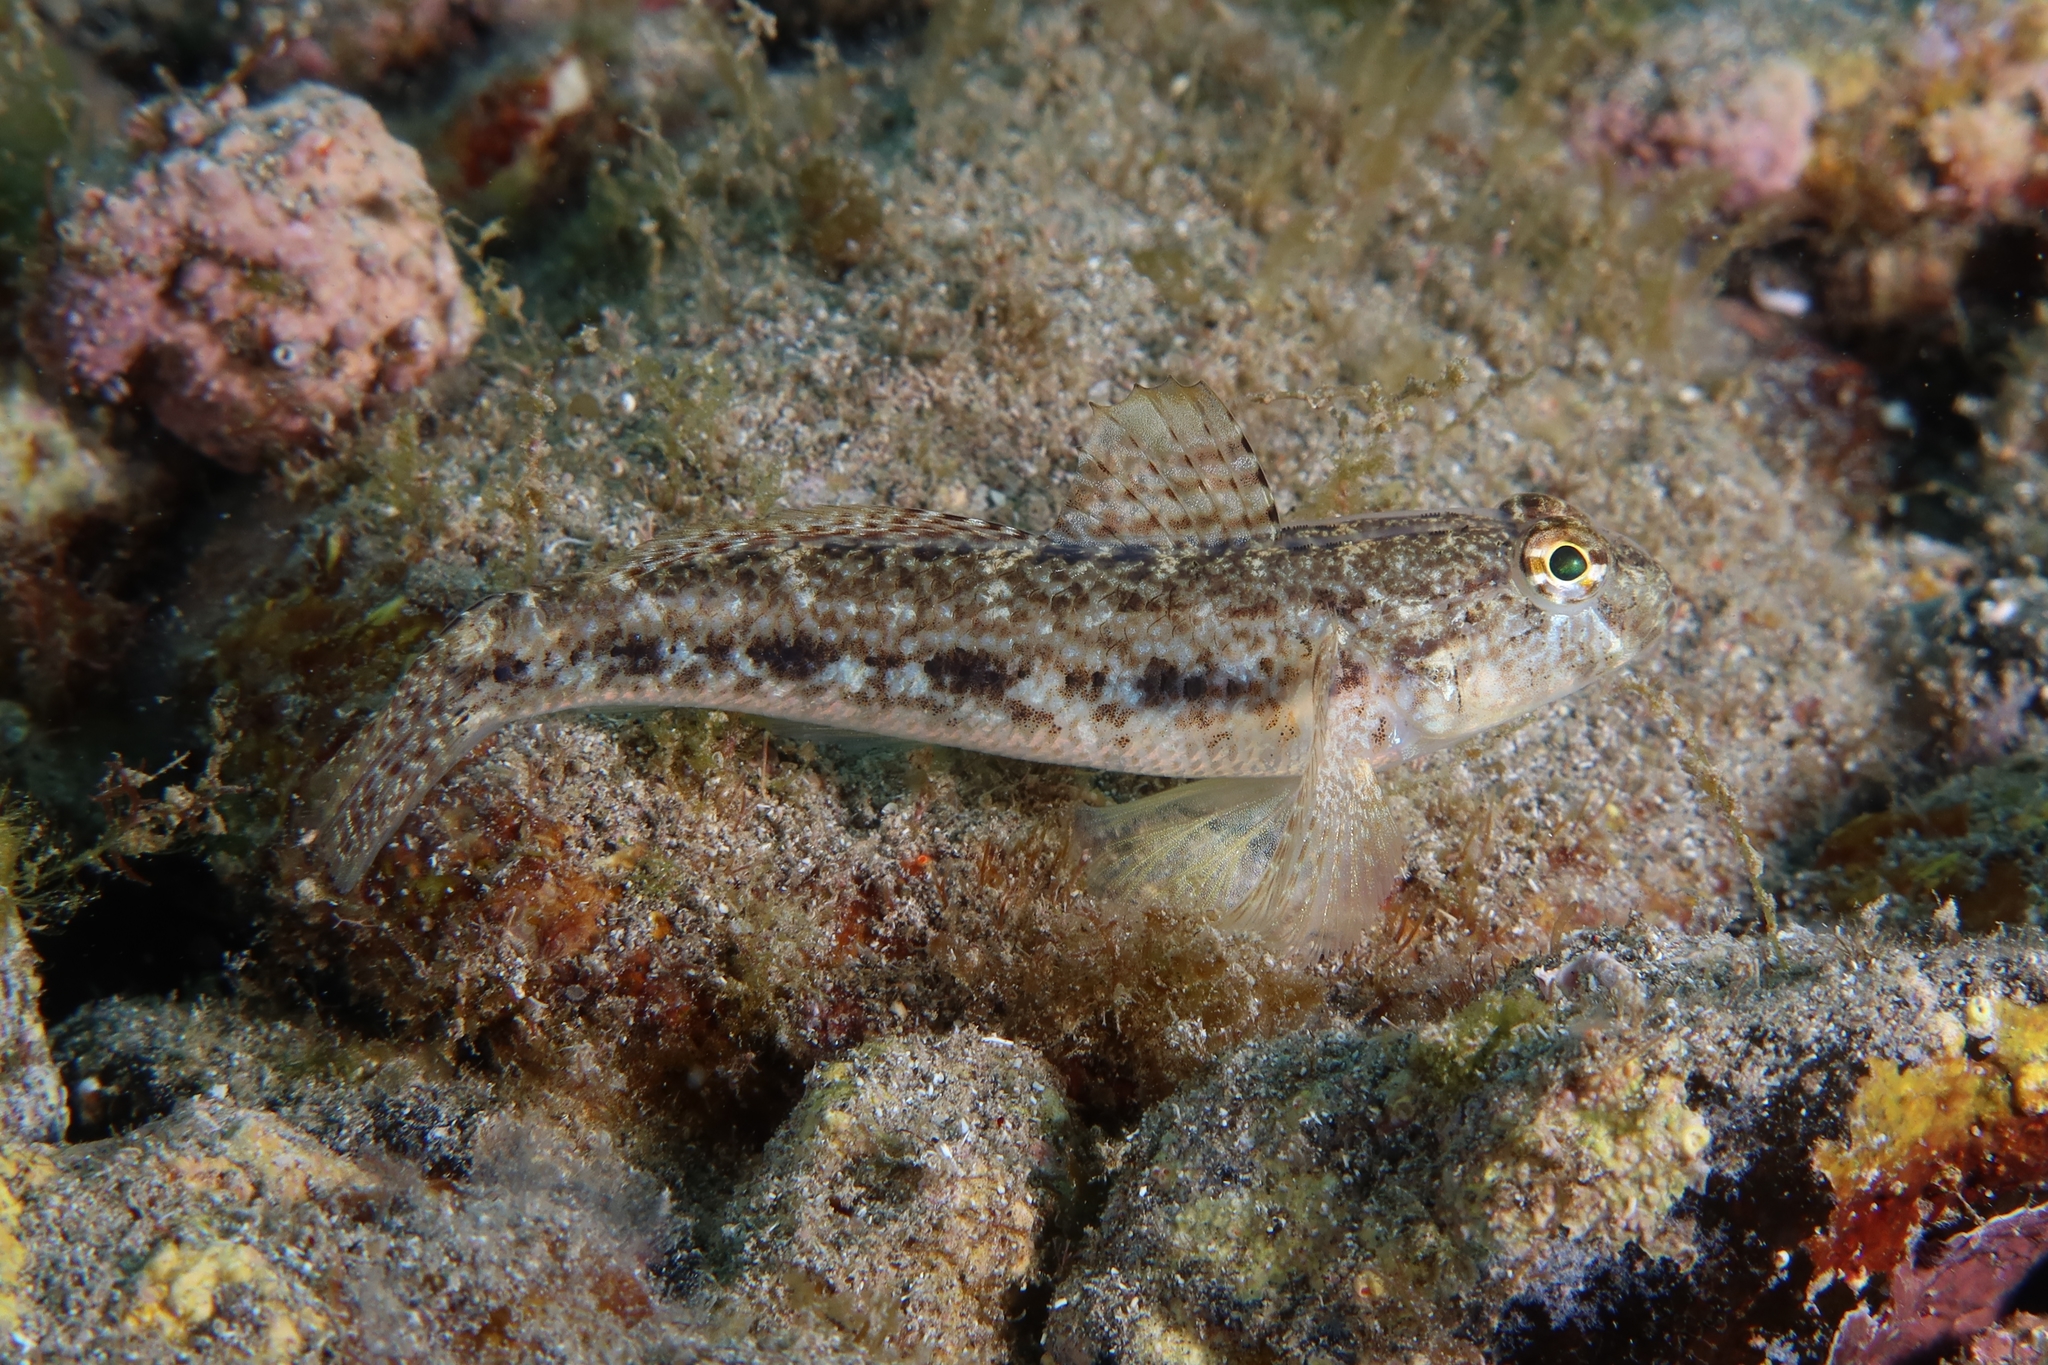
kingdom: Animalia
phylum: Chordata
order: Perciformes
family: Gobiidae
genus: Gobius
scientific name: Gobius niger
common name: Black goby
